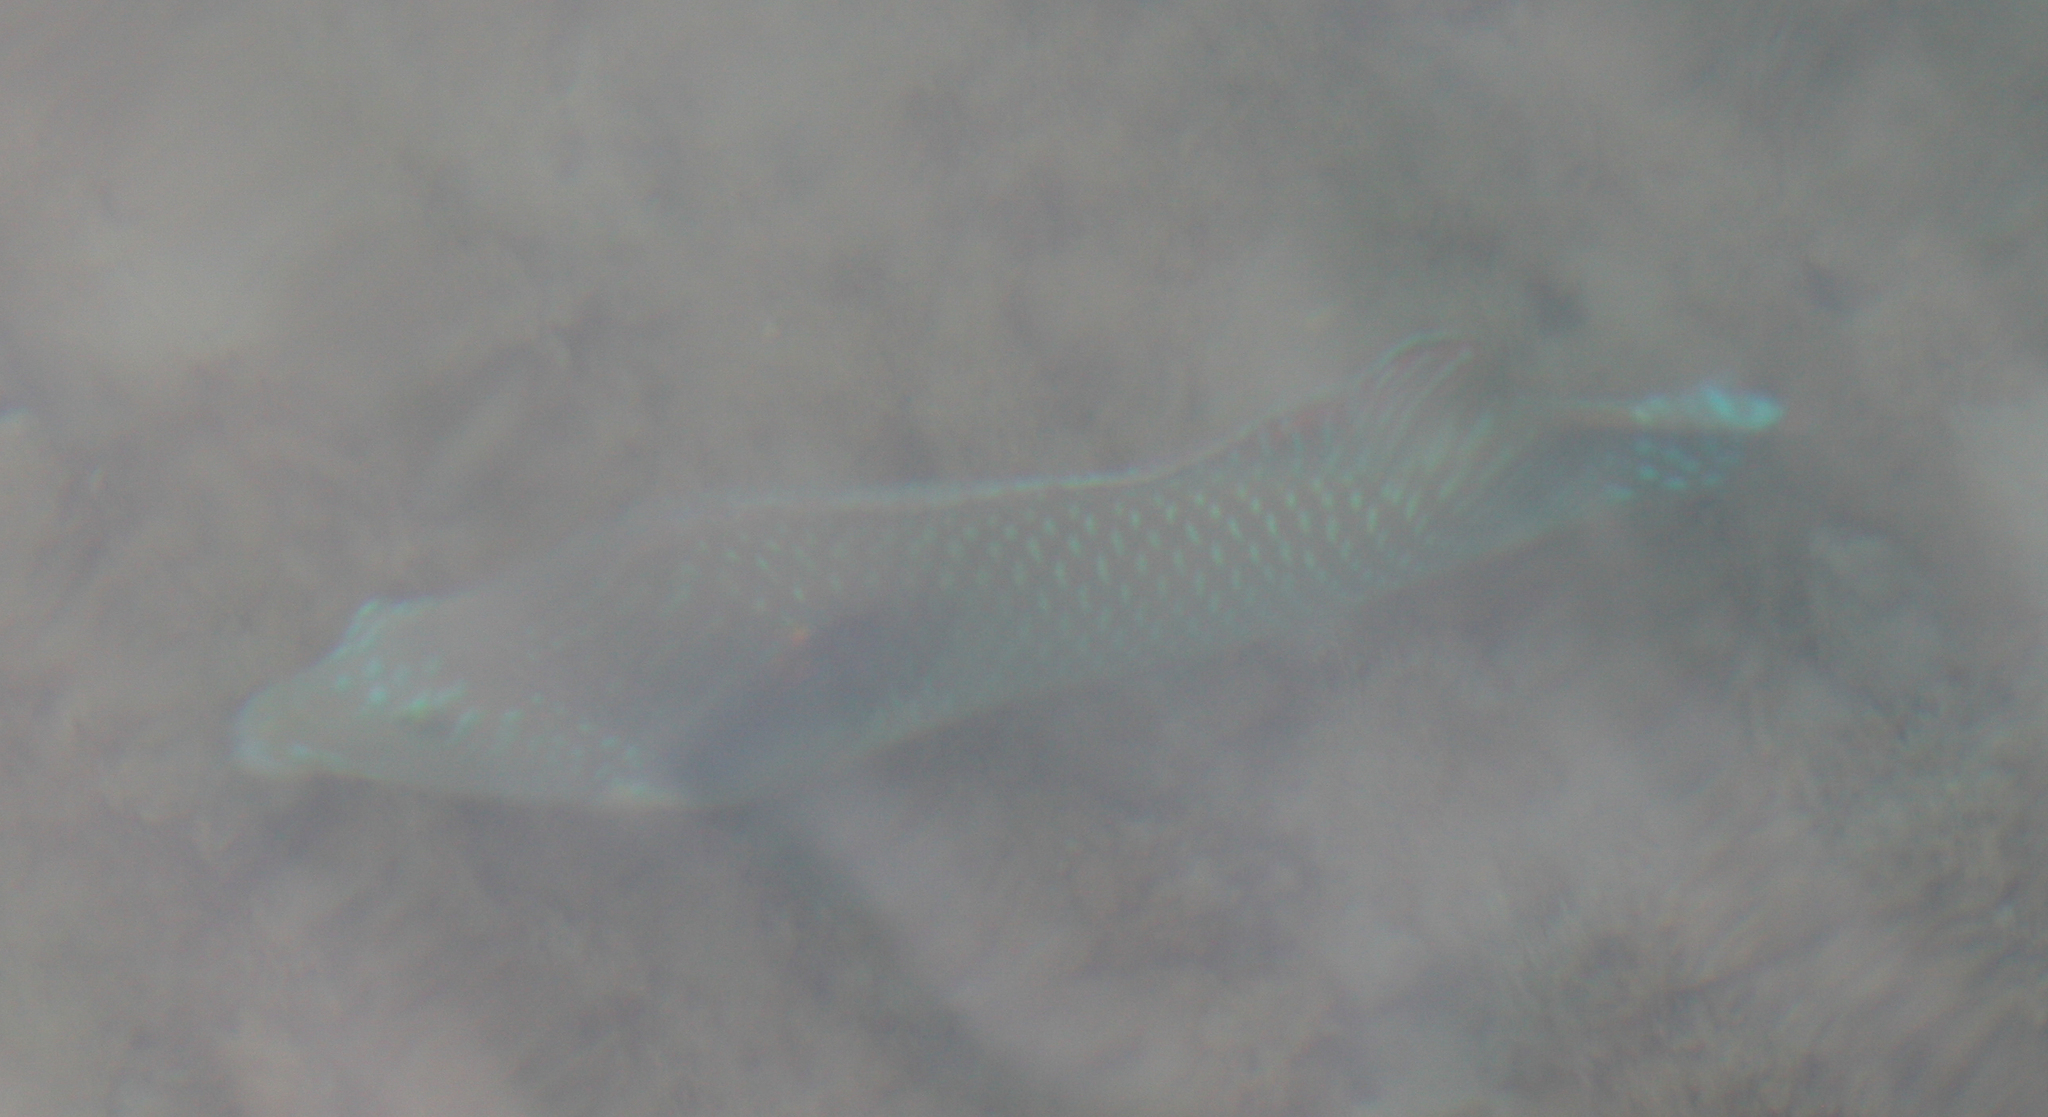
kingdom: Animalia
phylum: Chordata
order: Perciformes
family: Labridae
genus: Halichoeres
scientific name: Halichoeres nicholsi
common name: Spinster wrasse
